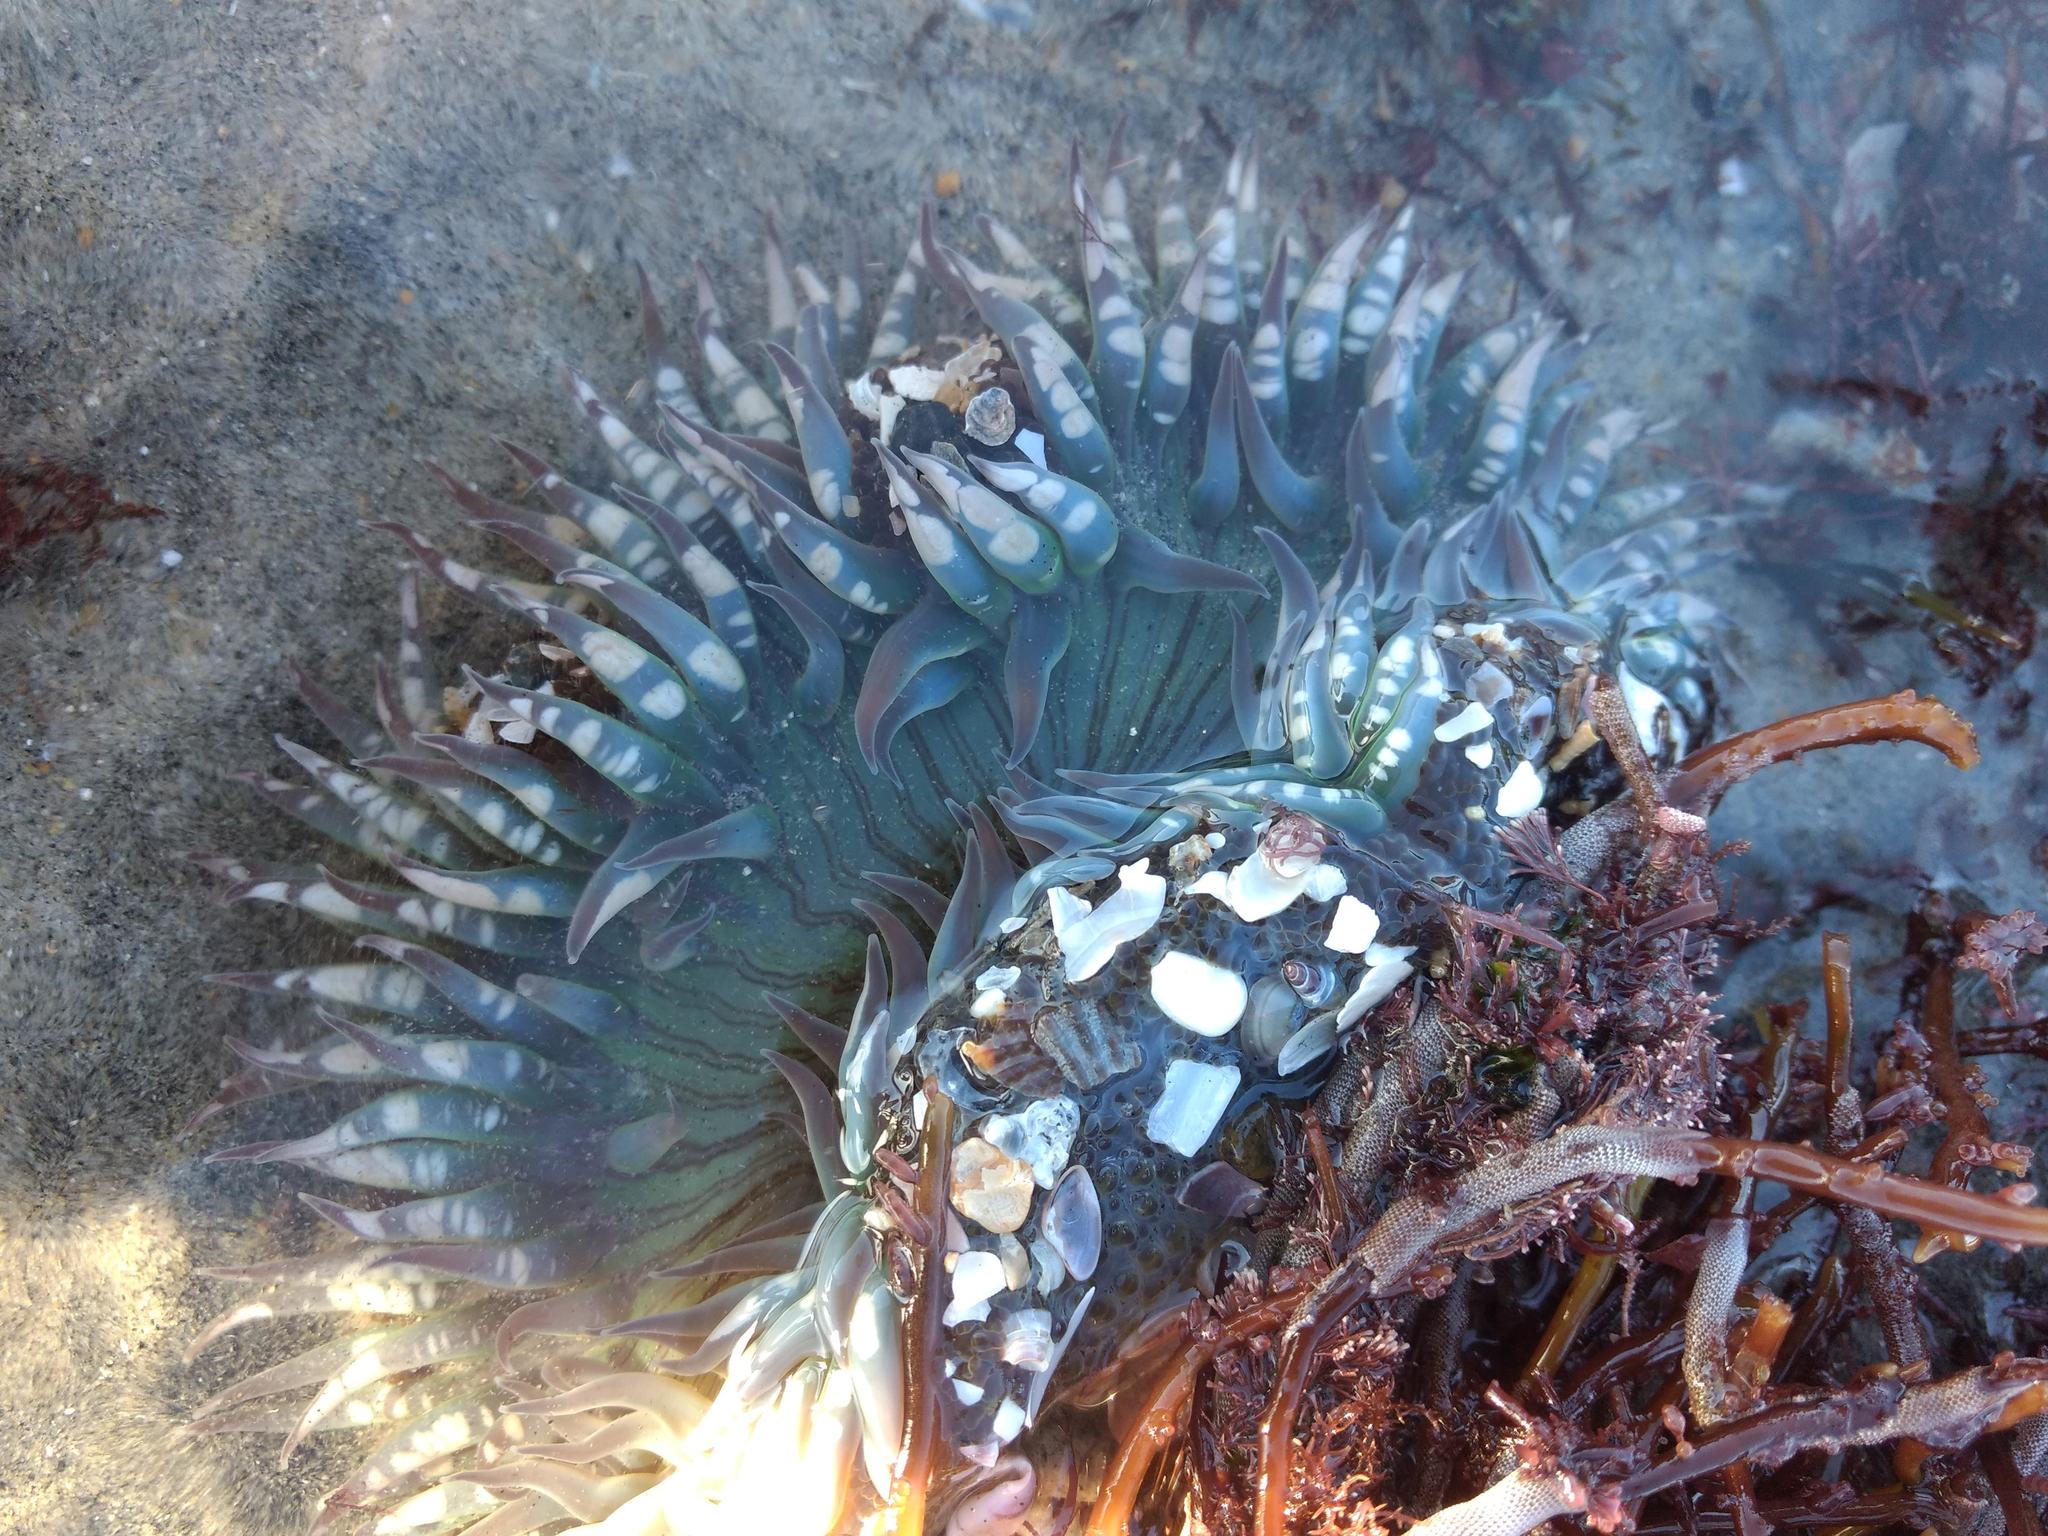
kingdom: Animalia
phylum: Cnidaria
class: Anthozoa
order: Actiniaria
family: Actiniidae
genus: Anthopleura
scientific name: Anthopleura sola
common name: Sun anemone
